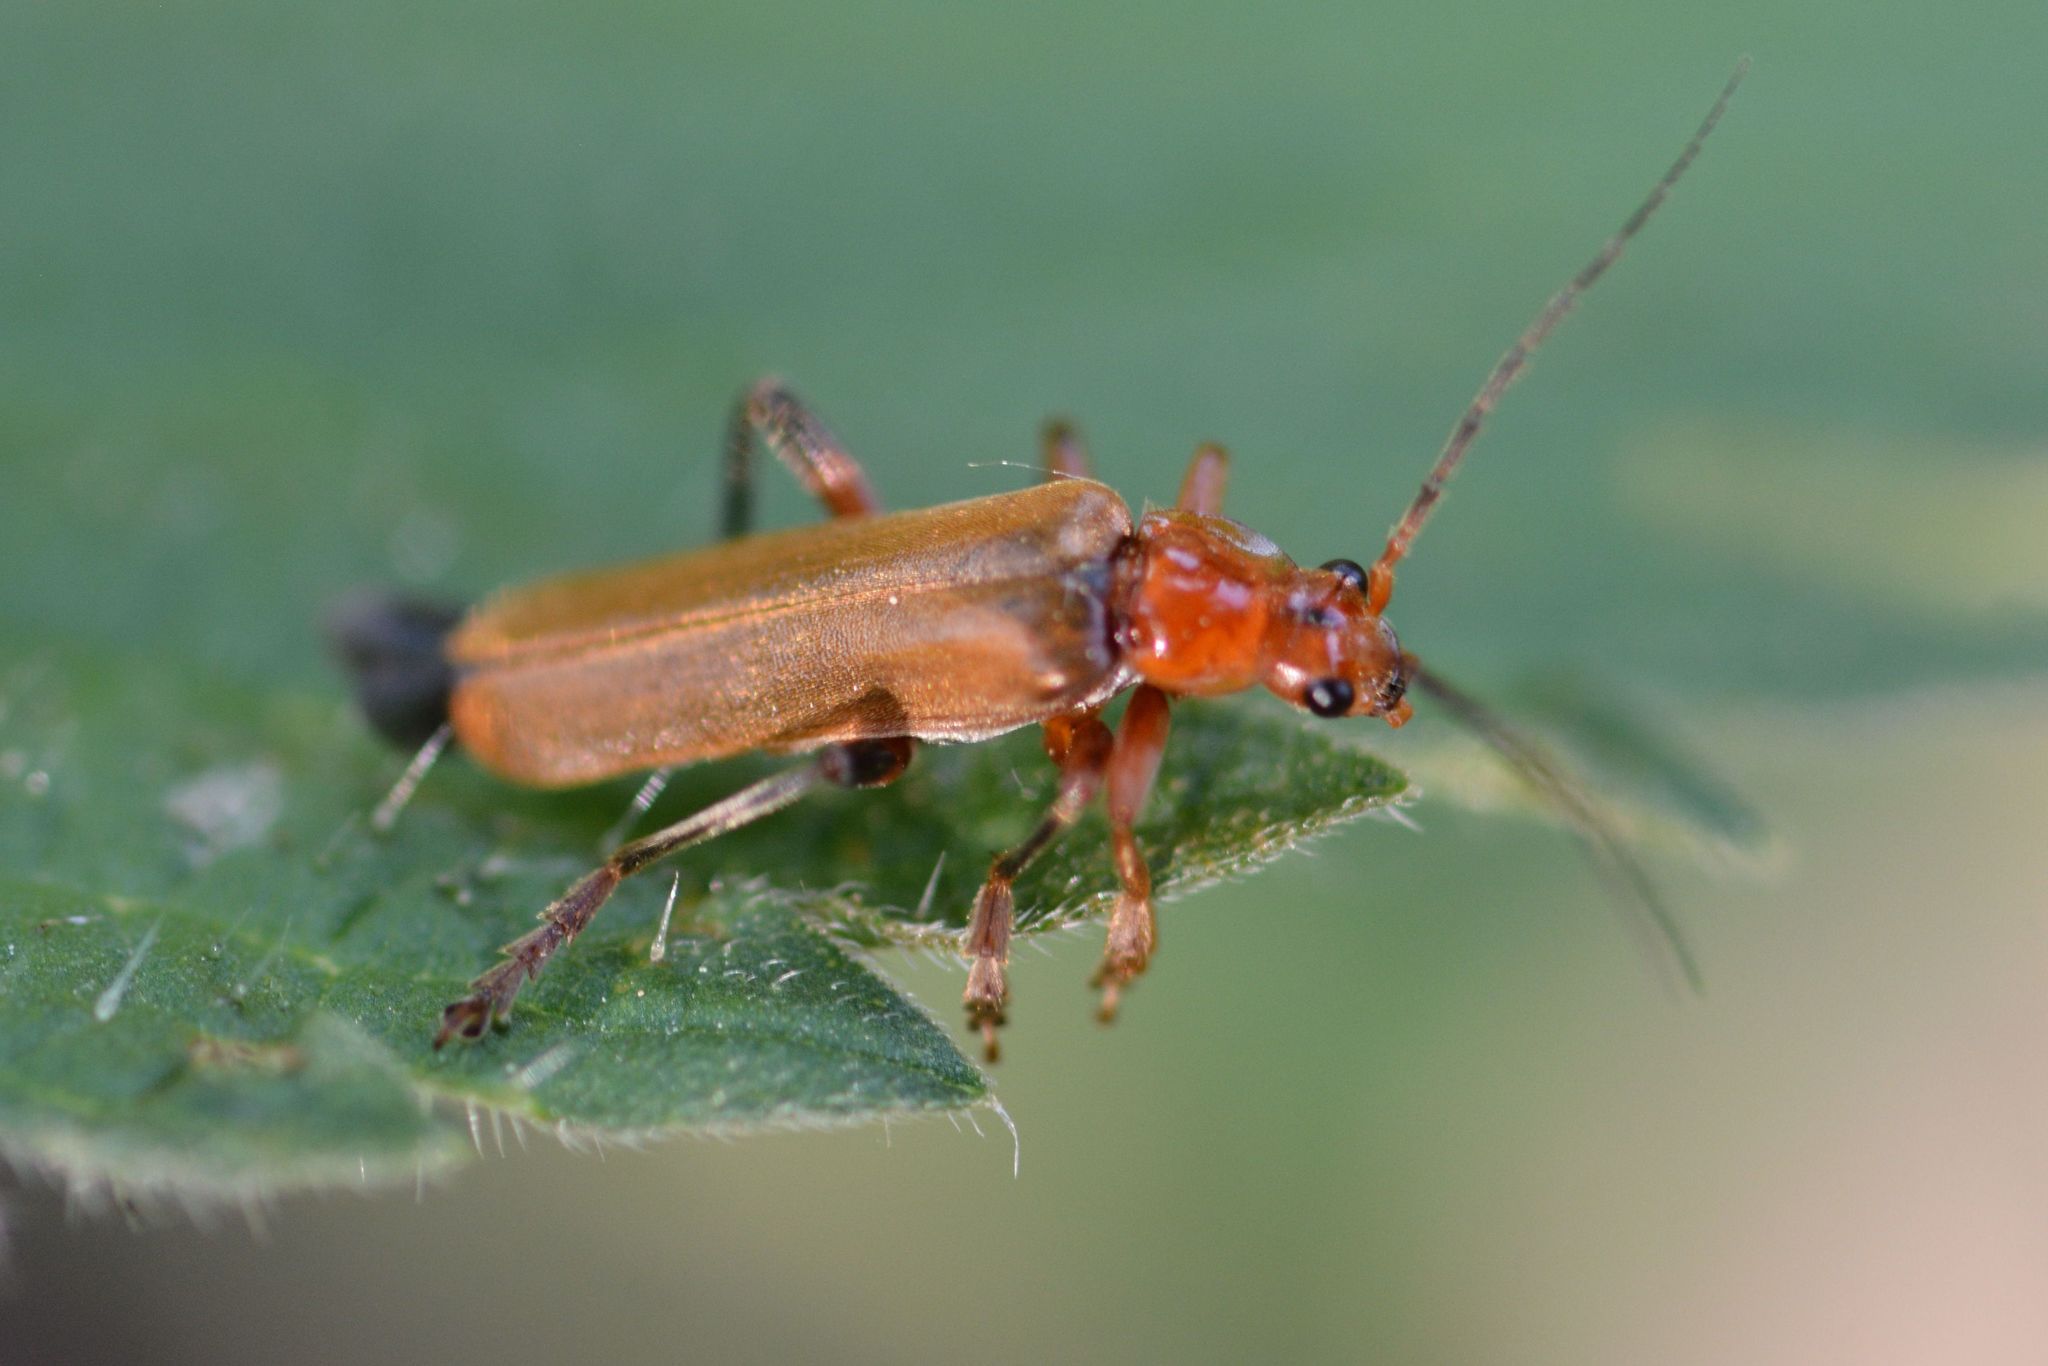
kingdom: Animalia
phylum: Arthropoda
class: Insecta
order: Coleoptera
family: Cantharidae
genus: Cantharis
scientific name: Cantharis livida
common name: Livid soldier beetle
